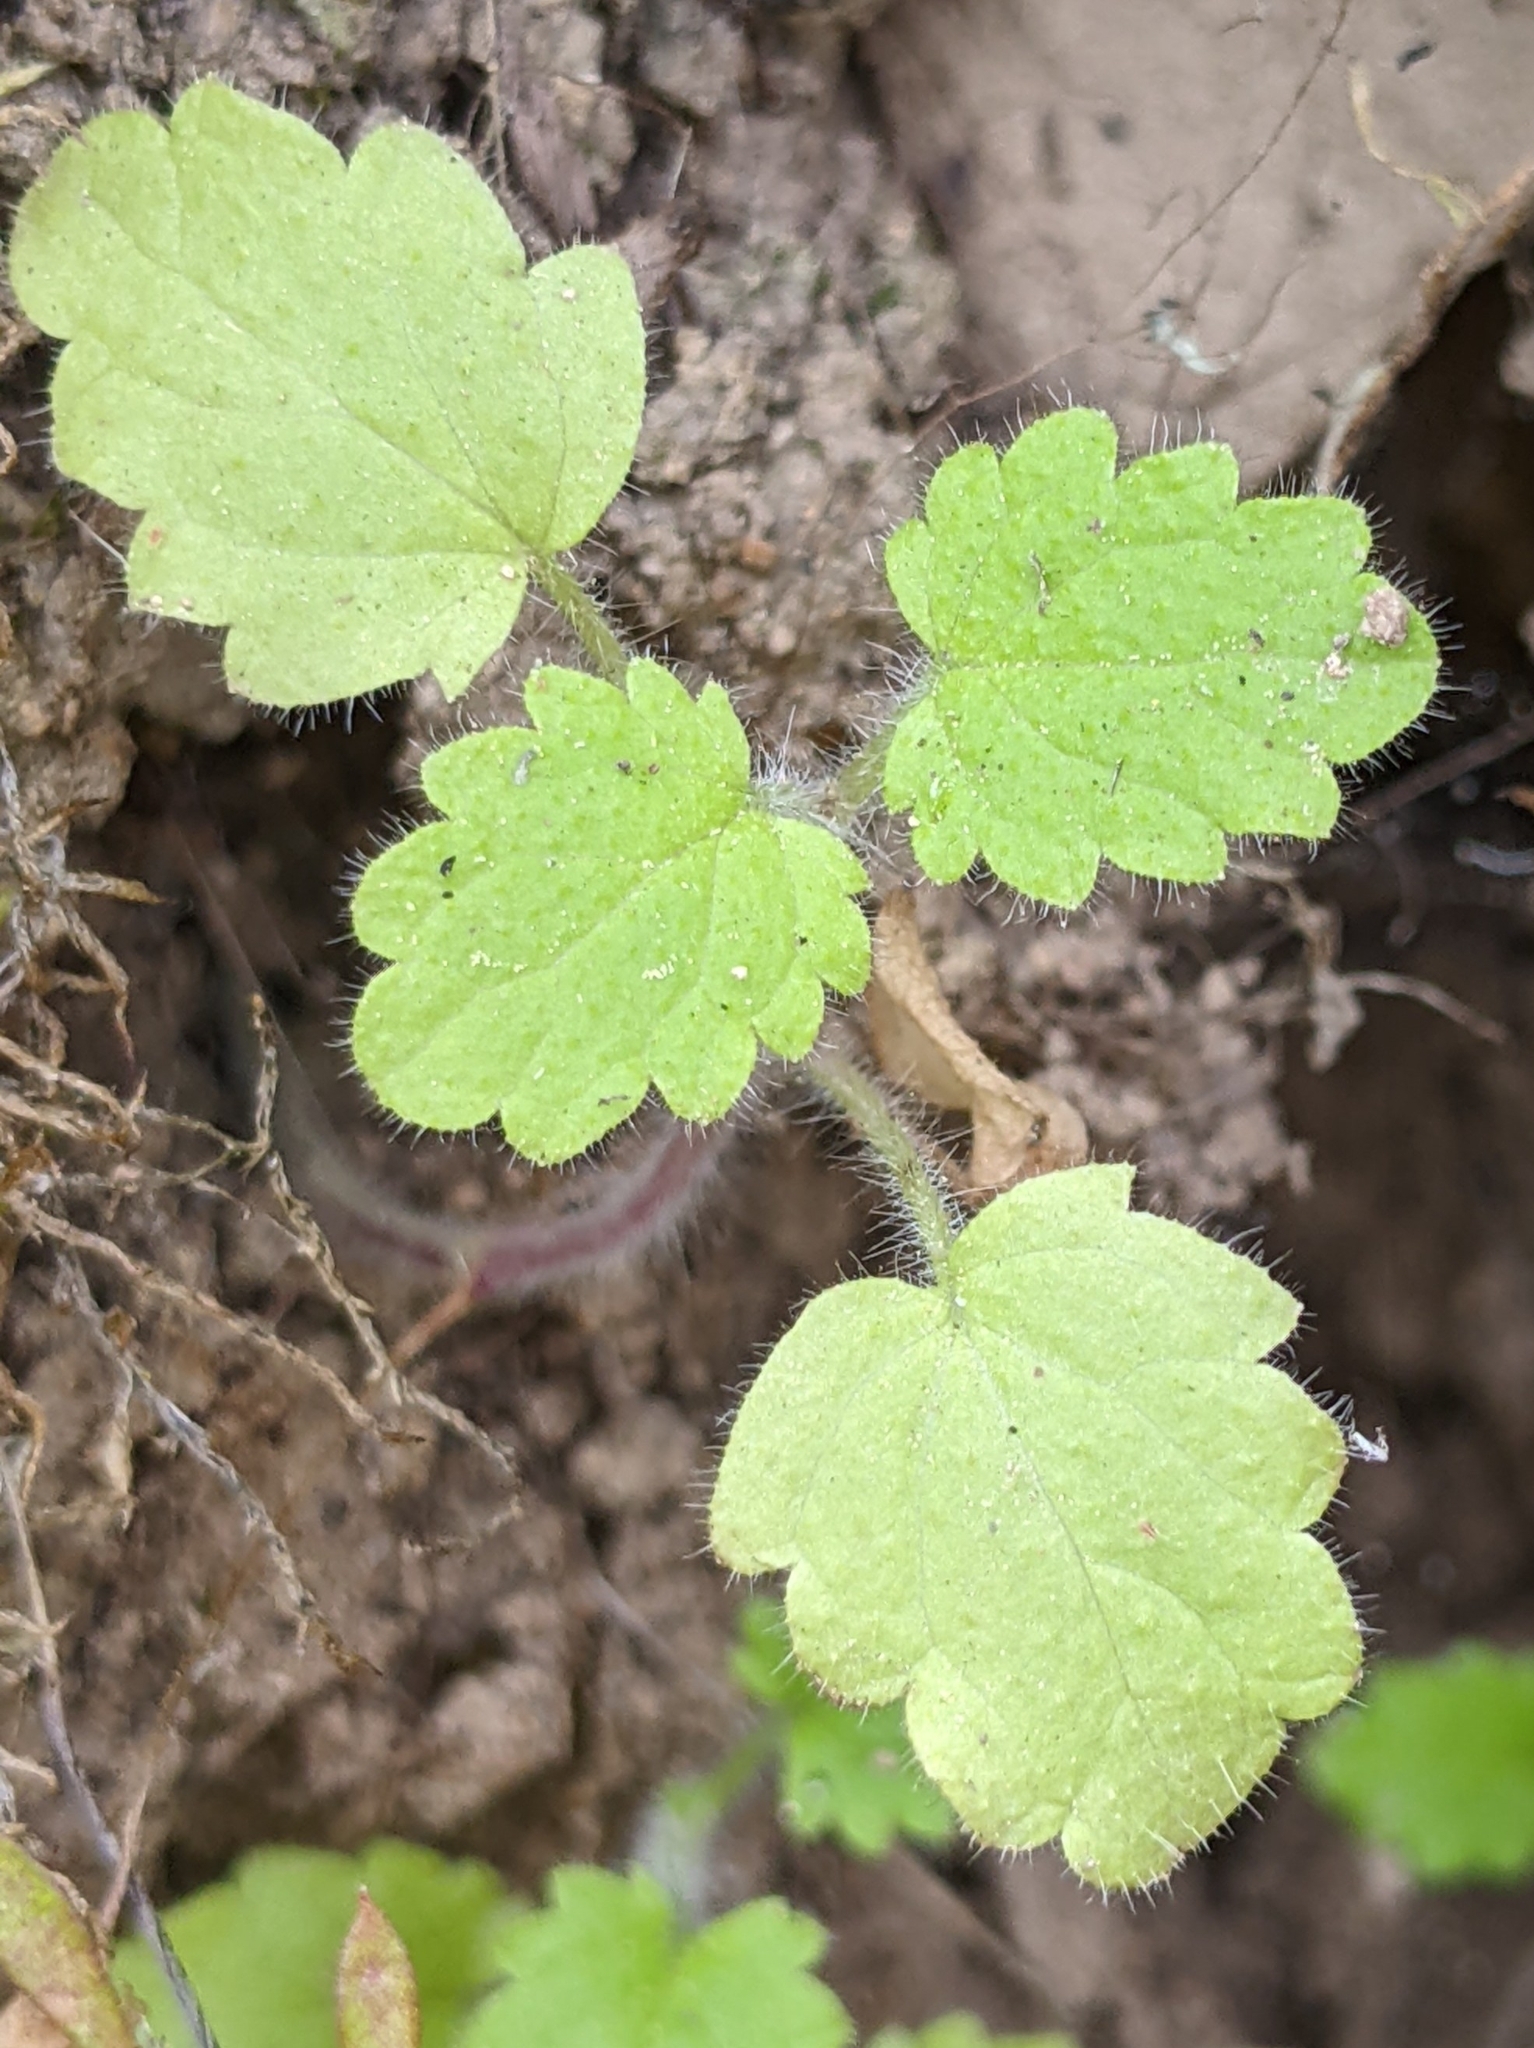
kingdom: Plantae
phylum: Tracheophyta
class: Magnoliopsida
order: Rosales
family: Urticaceae
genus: Hesperocnide
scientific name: Hesperocnide tenella
